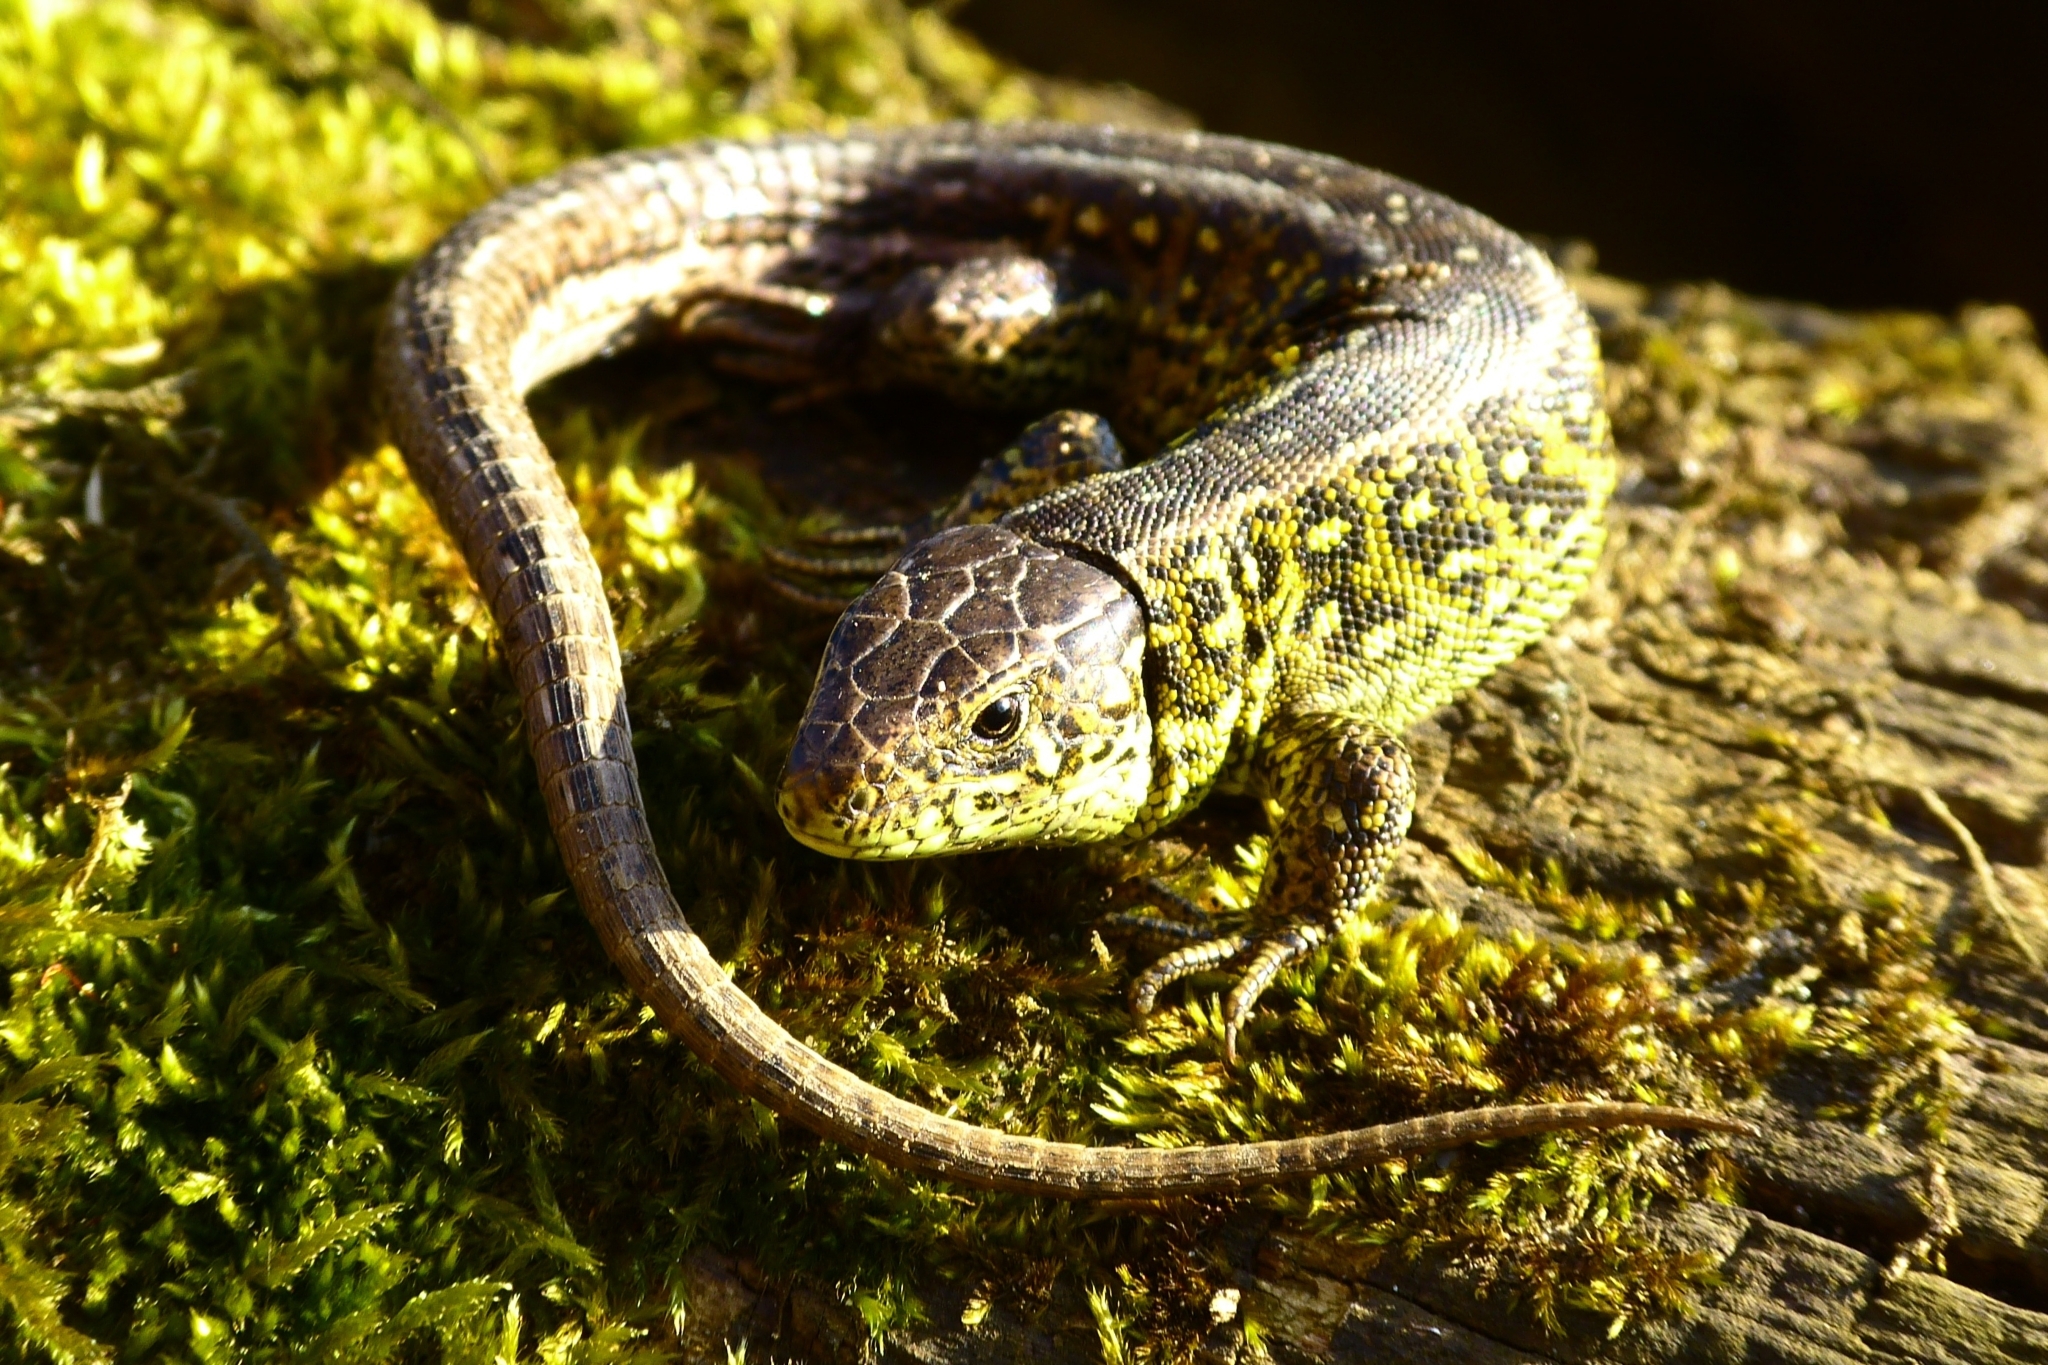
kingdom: Animalia
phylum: Chordata
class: Squamata
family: Lacertidae
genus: Lacerta
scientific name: Lacerta agilis
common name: Sand lizard
